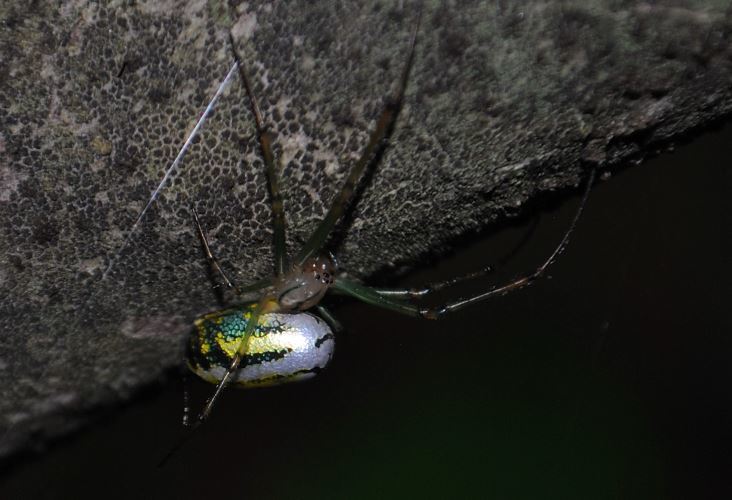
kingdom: Animalia
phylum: Arthropoda
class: Arachnida
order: Araneae
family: Tetragnathidae
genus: Leucauge
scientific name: Leucauge venusta
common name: Longjawed orb weavers
